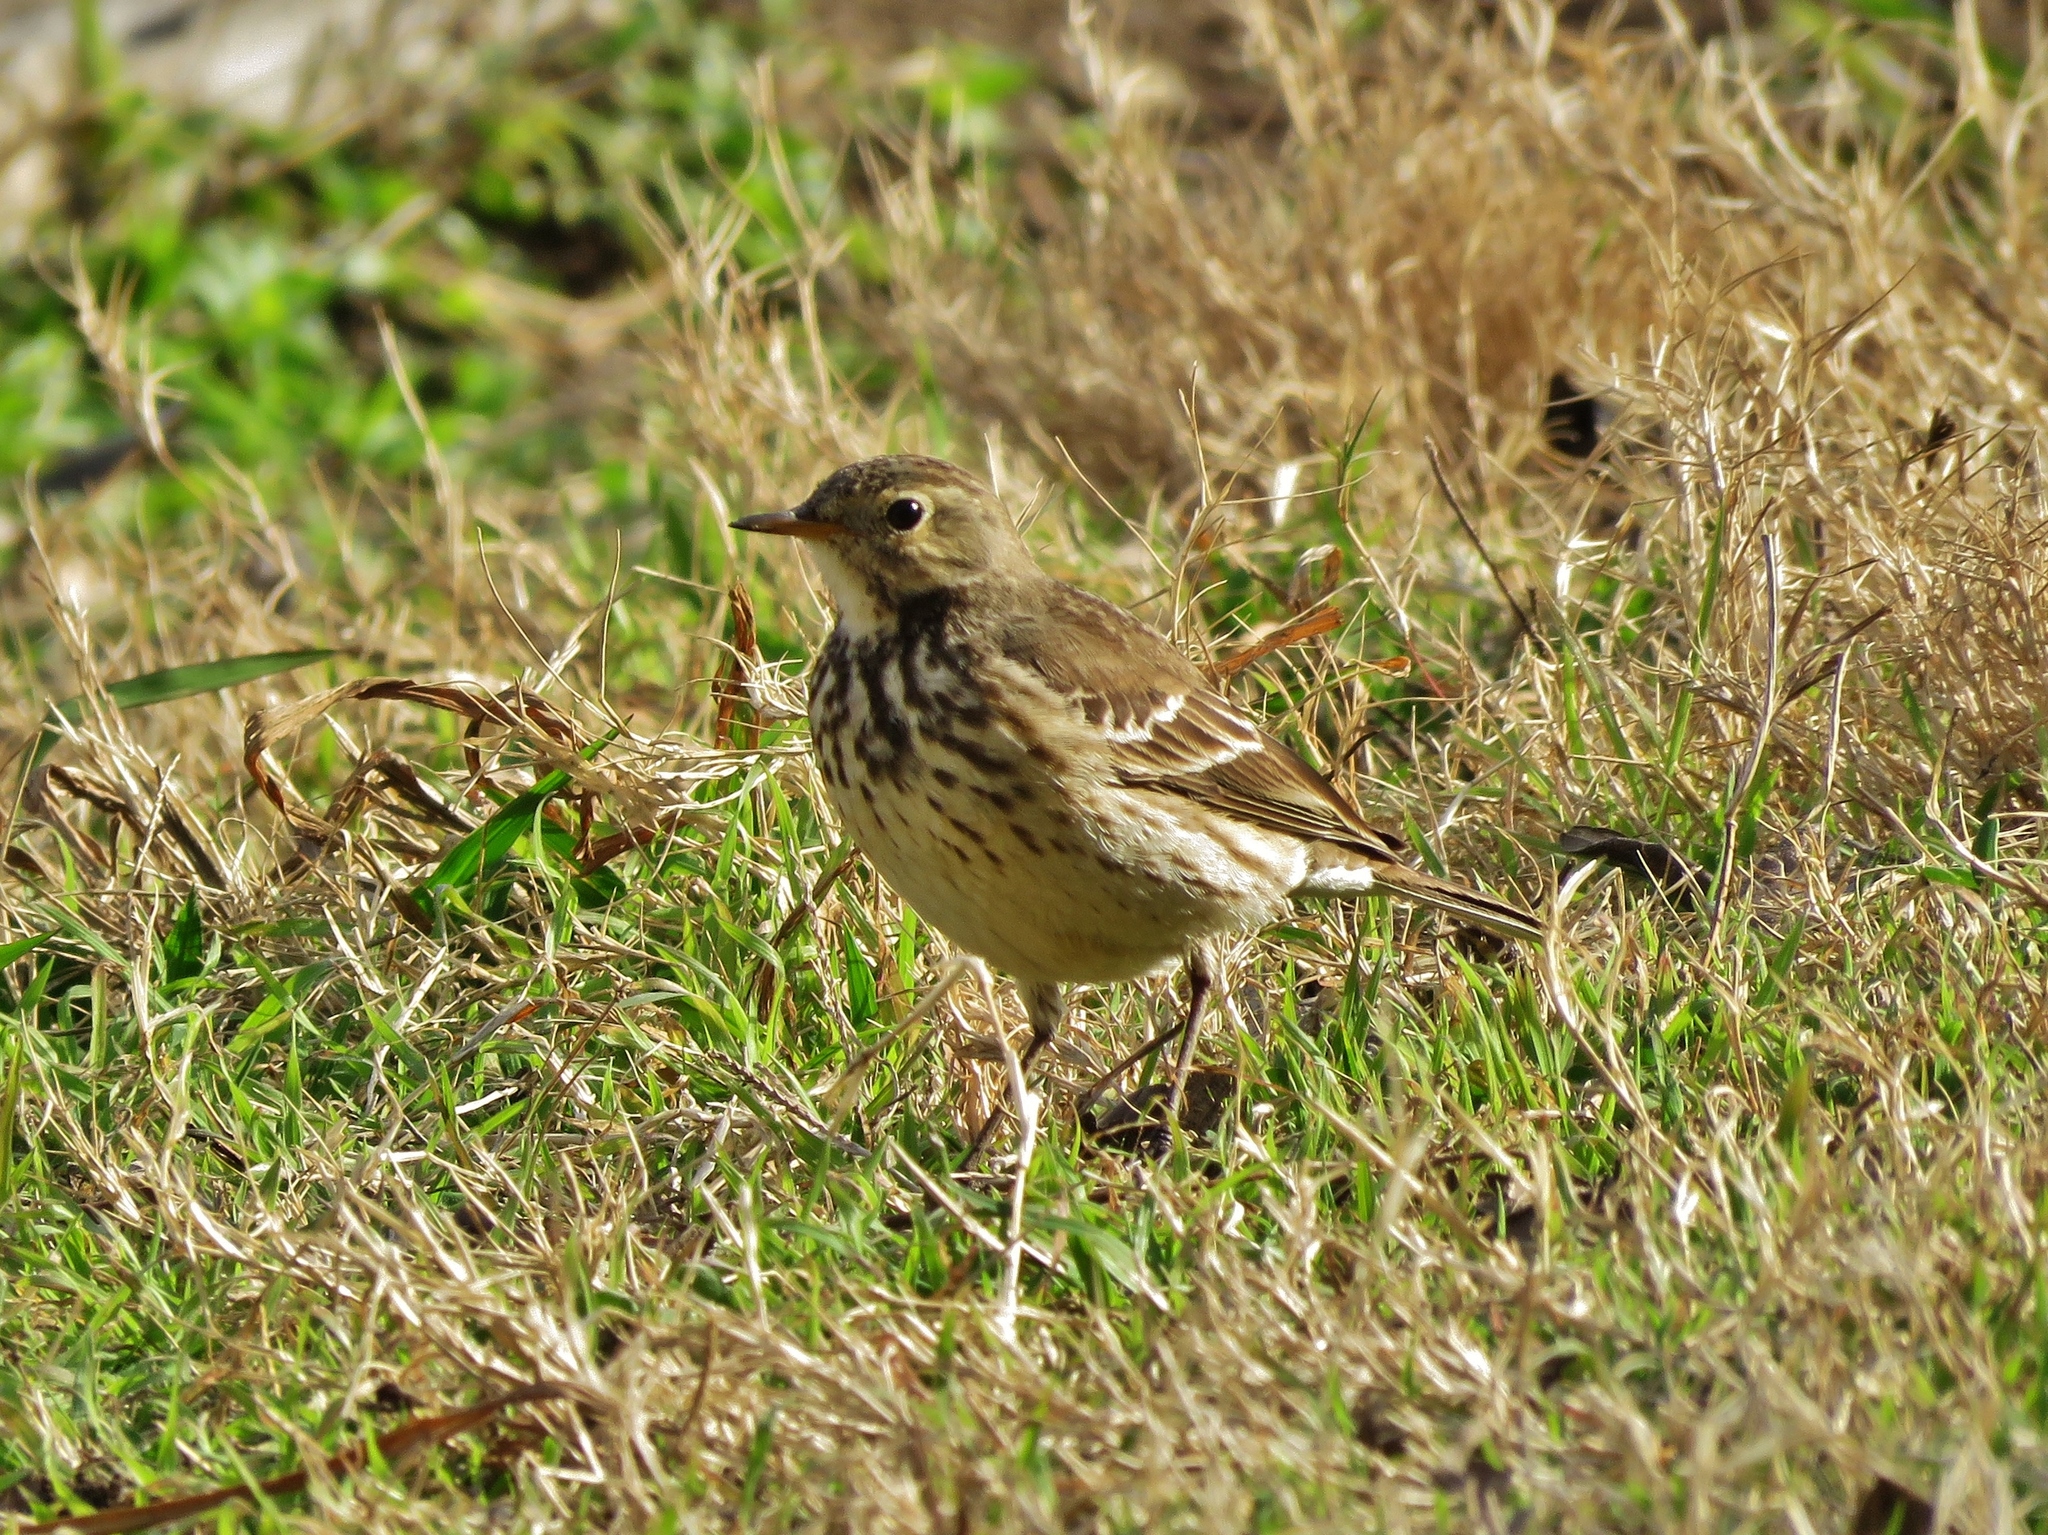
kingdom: Animalia
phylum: Chordata
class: Aves
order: Passeriformes
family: Motacillidae
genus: Anthus
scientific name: Anthus rubescens
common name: Buff-bellied pipit
